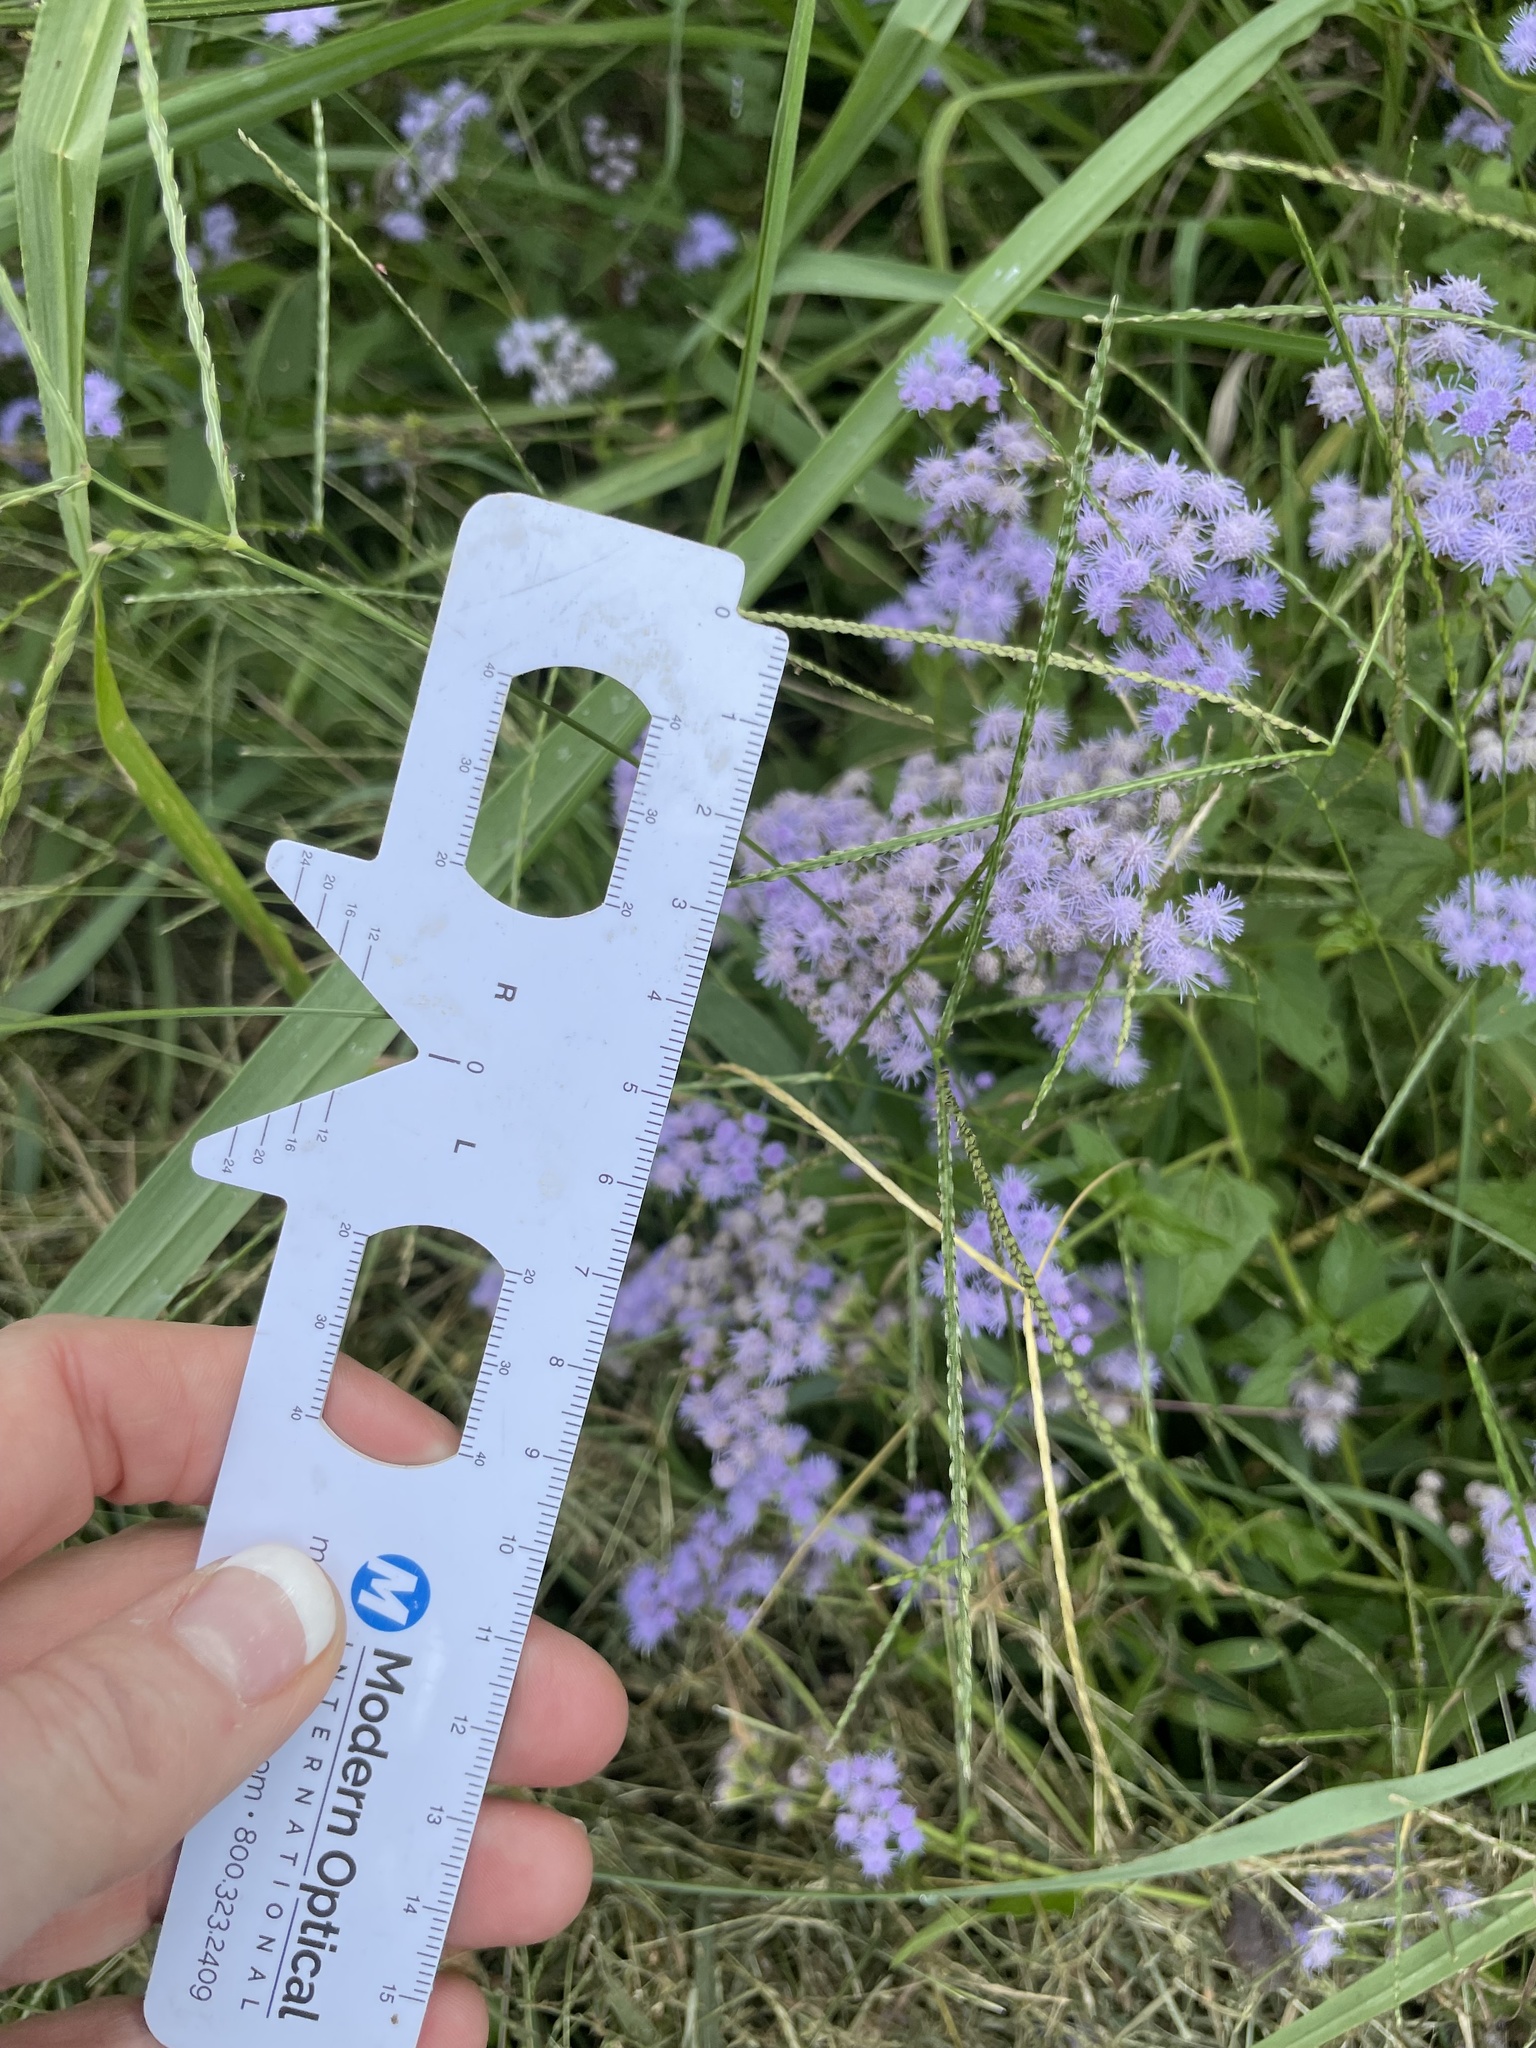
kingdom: Plantae
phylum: Tracheophyta
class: Magnoliopsida
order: Asterales
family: Asteraceae
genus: Conoclinium
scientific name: Conoclinium coelestinum
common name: Blue mistflower
